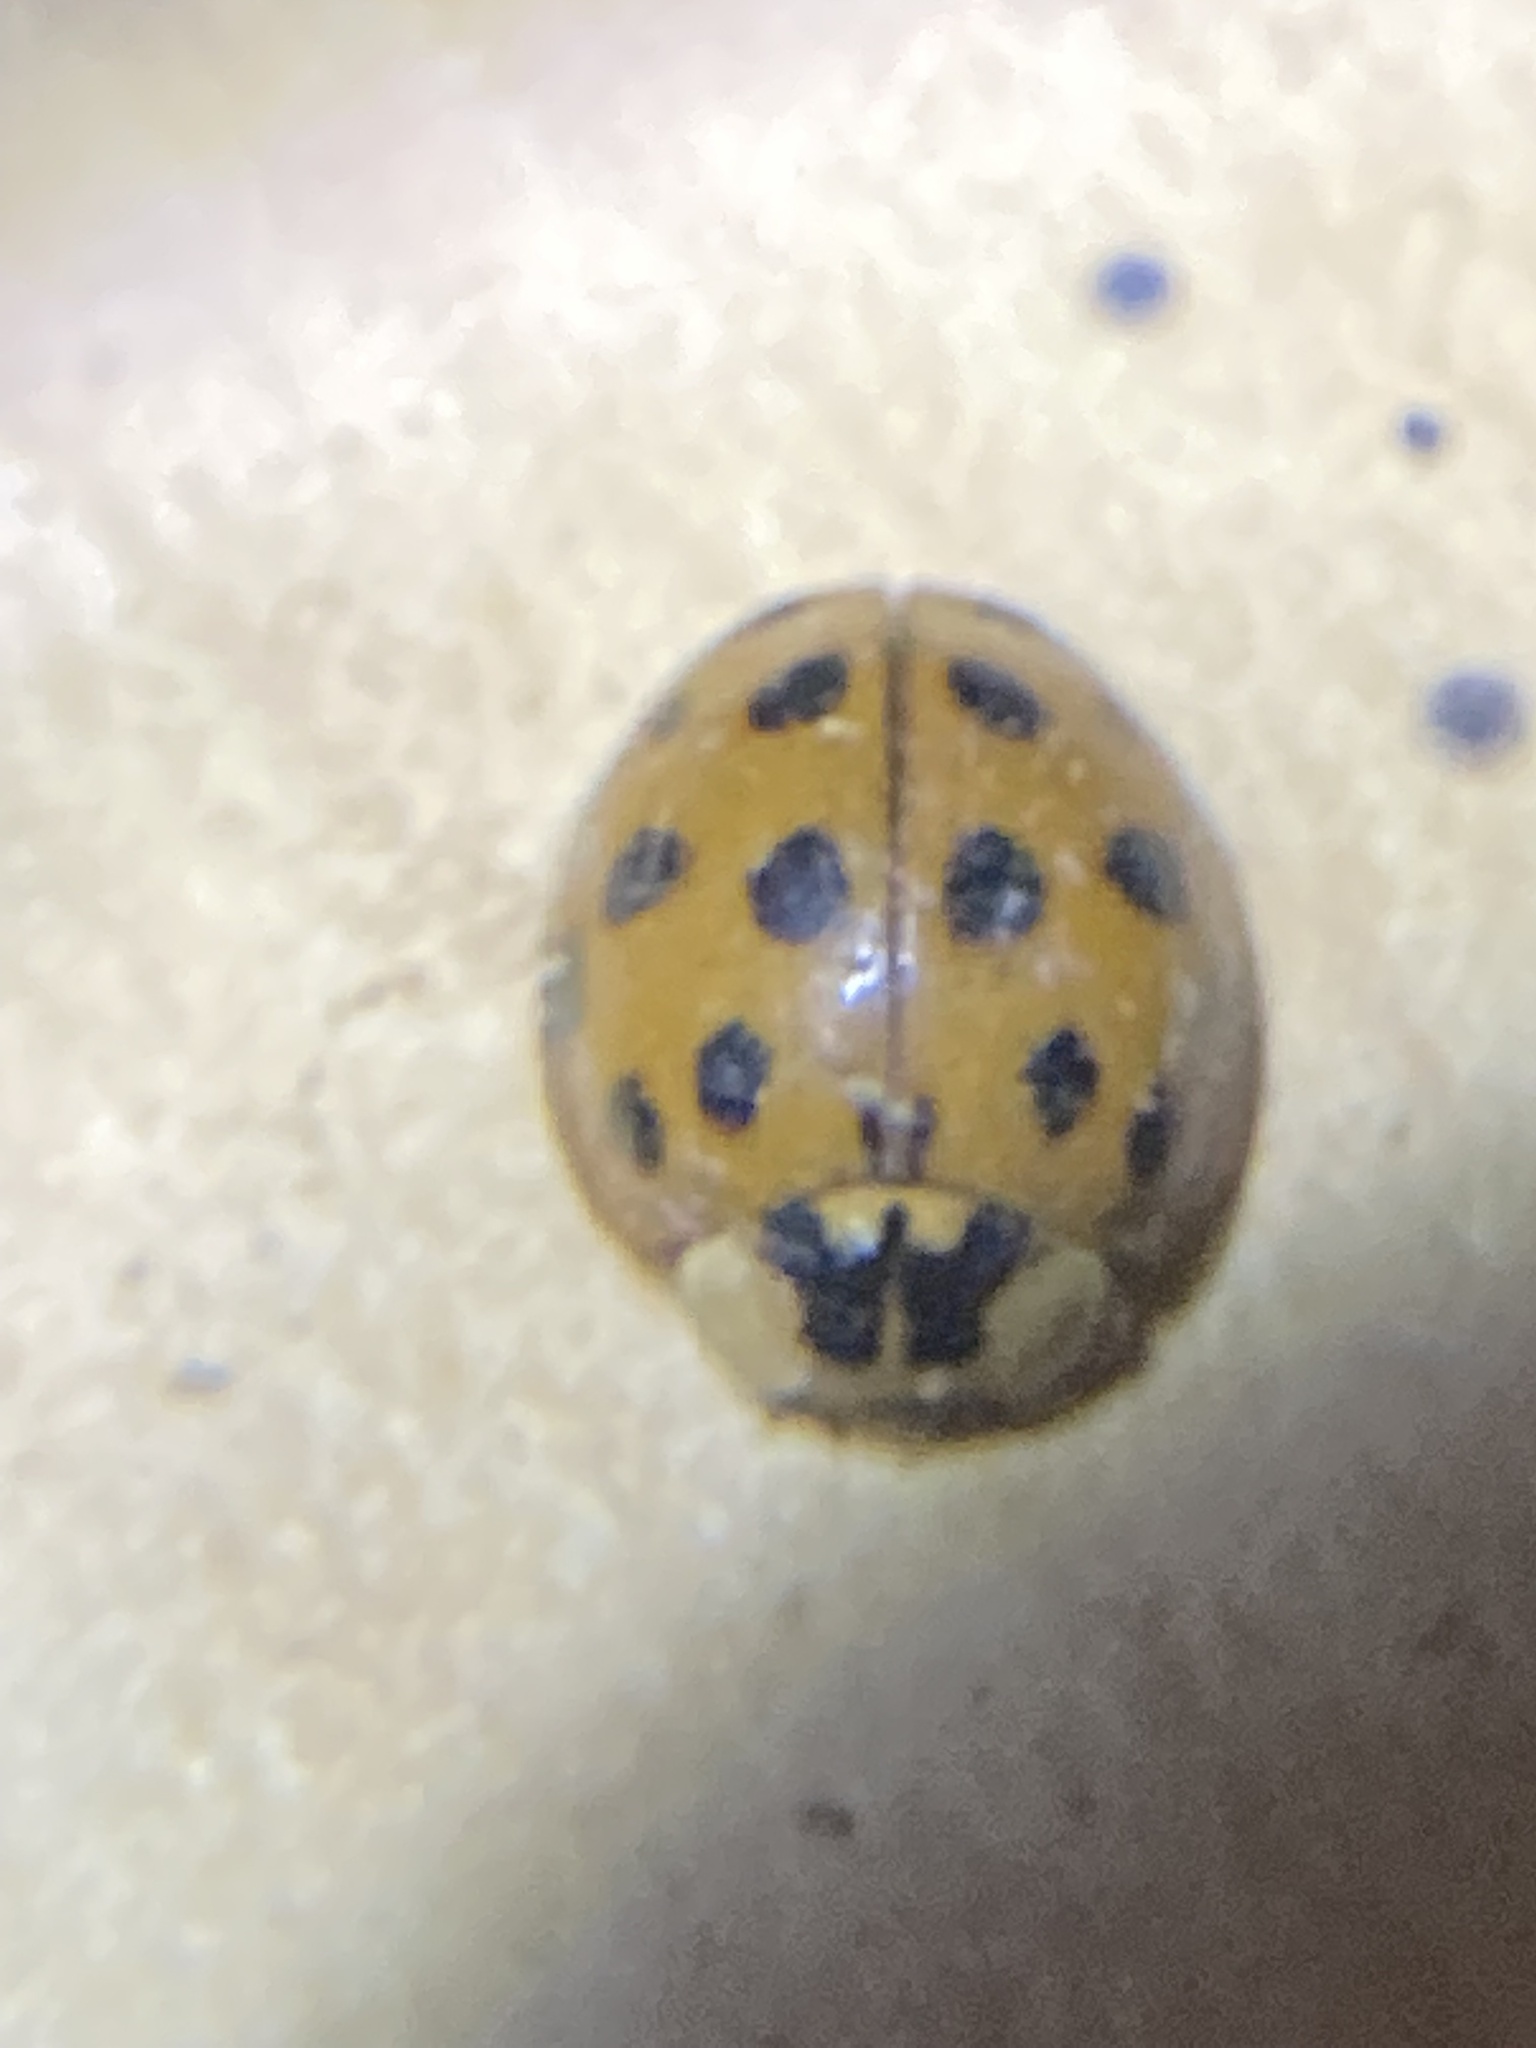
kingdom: Animalia
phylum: Arthropoda
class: Insecta
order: Coleoptera
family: Coccinellidae
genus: Harmonia
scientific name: Harmonia axyridis
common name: Harlequin ladybird
